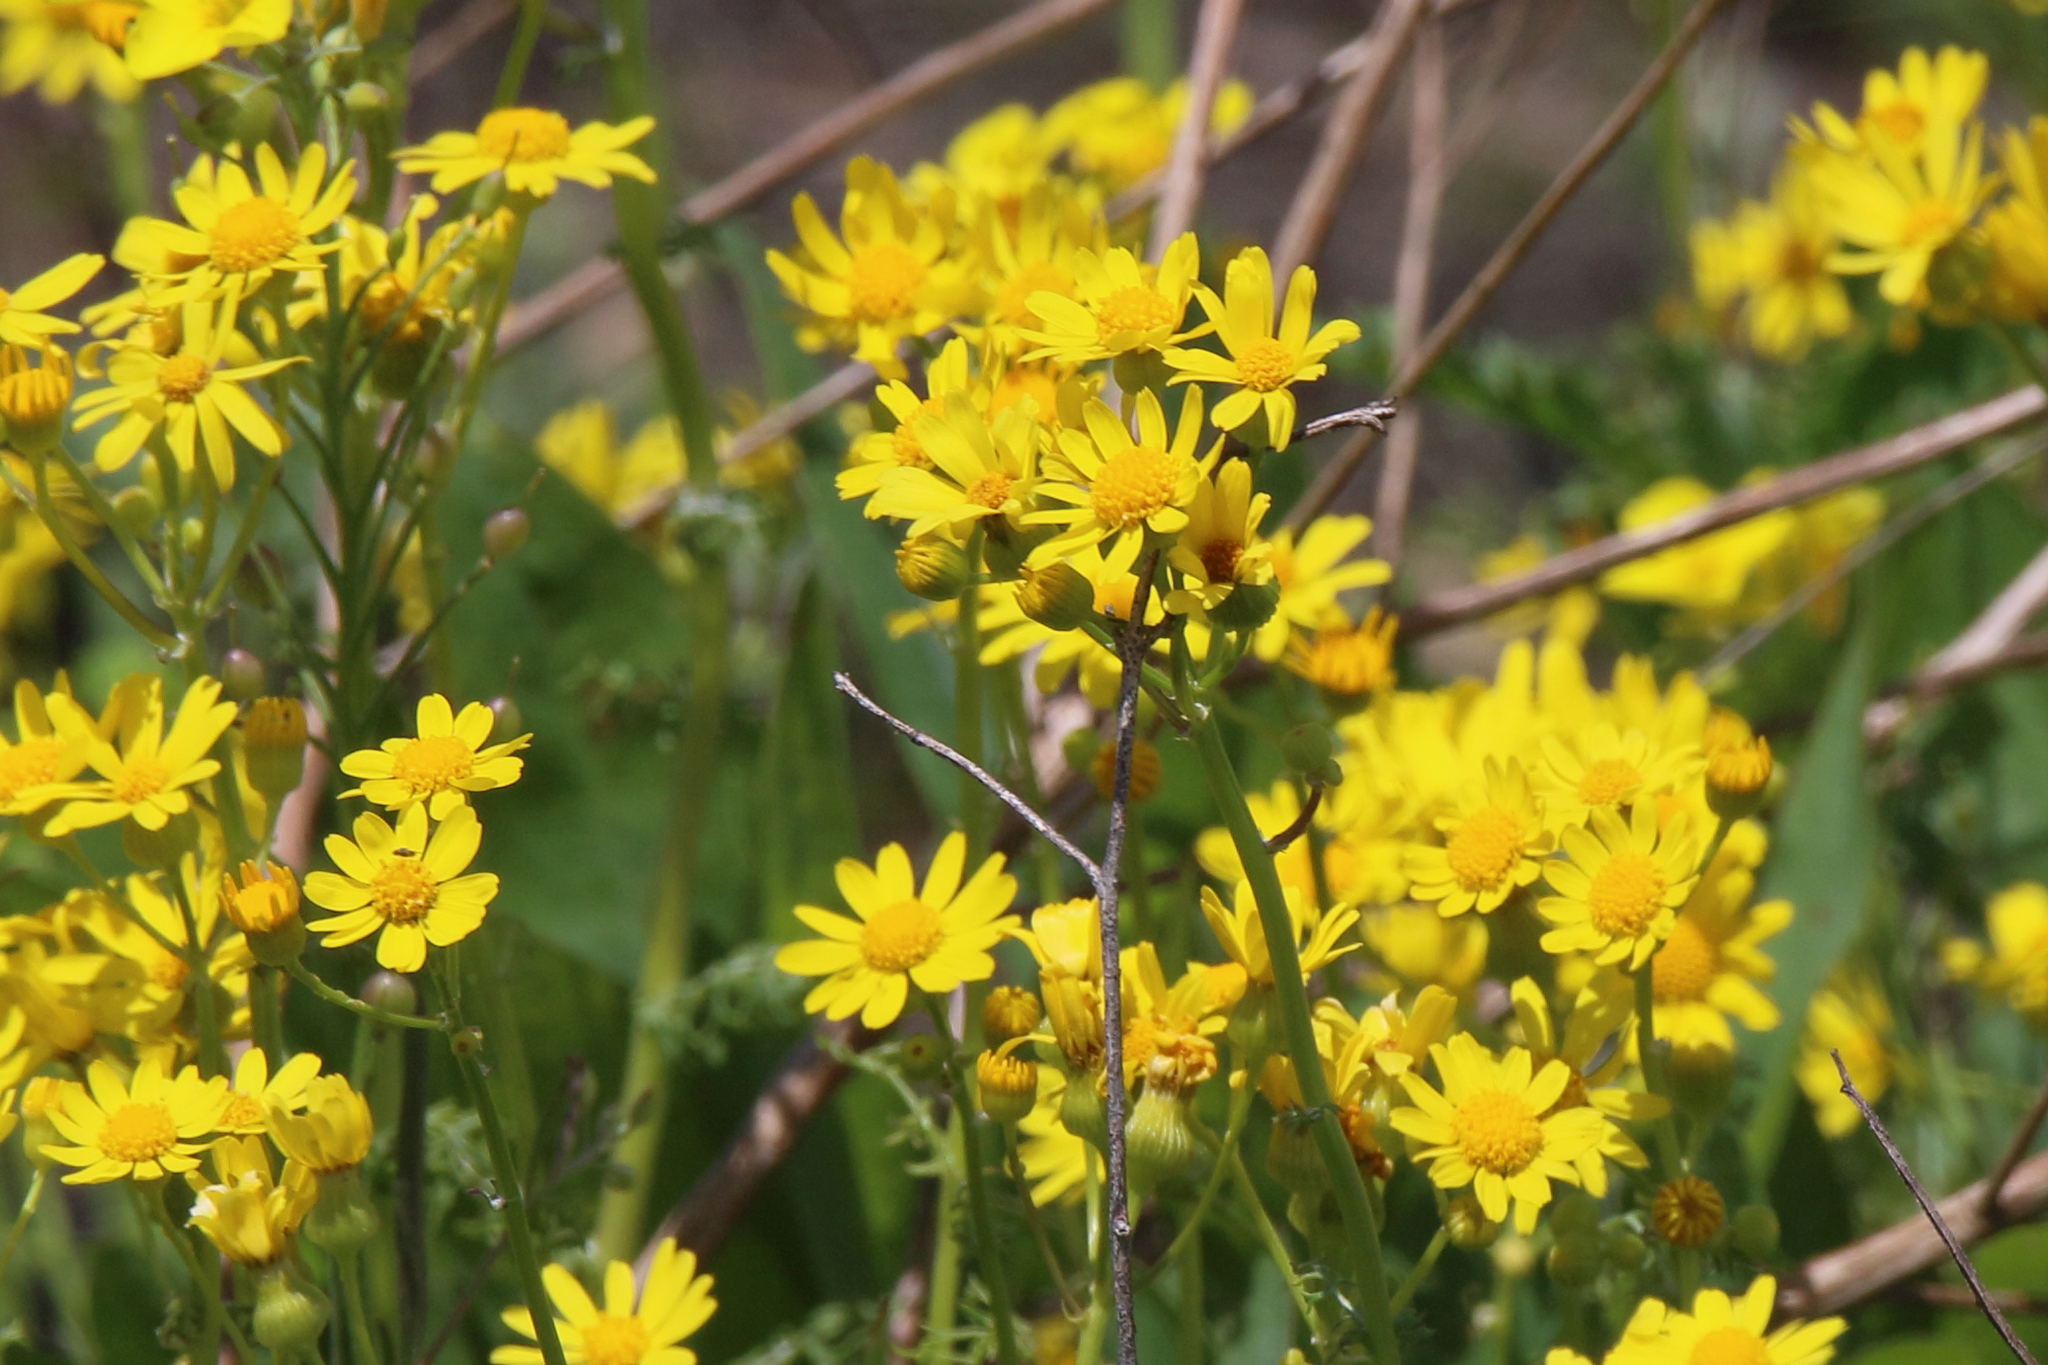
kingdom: Plantae
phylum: Tracheophyta
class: Magnoliopsida
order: Asterales
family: Asteraceae
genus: Packera
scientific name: Packera tampicana
